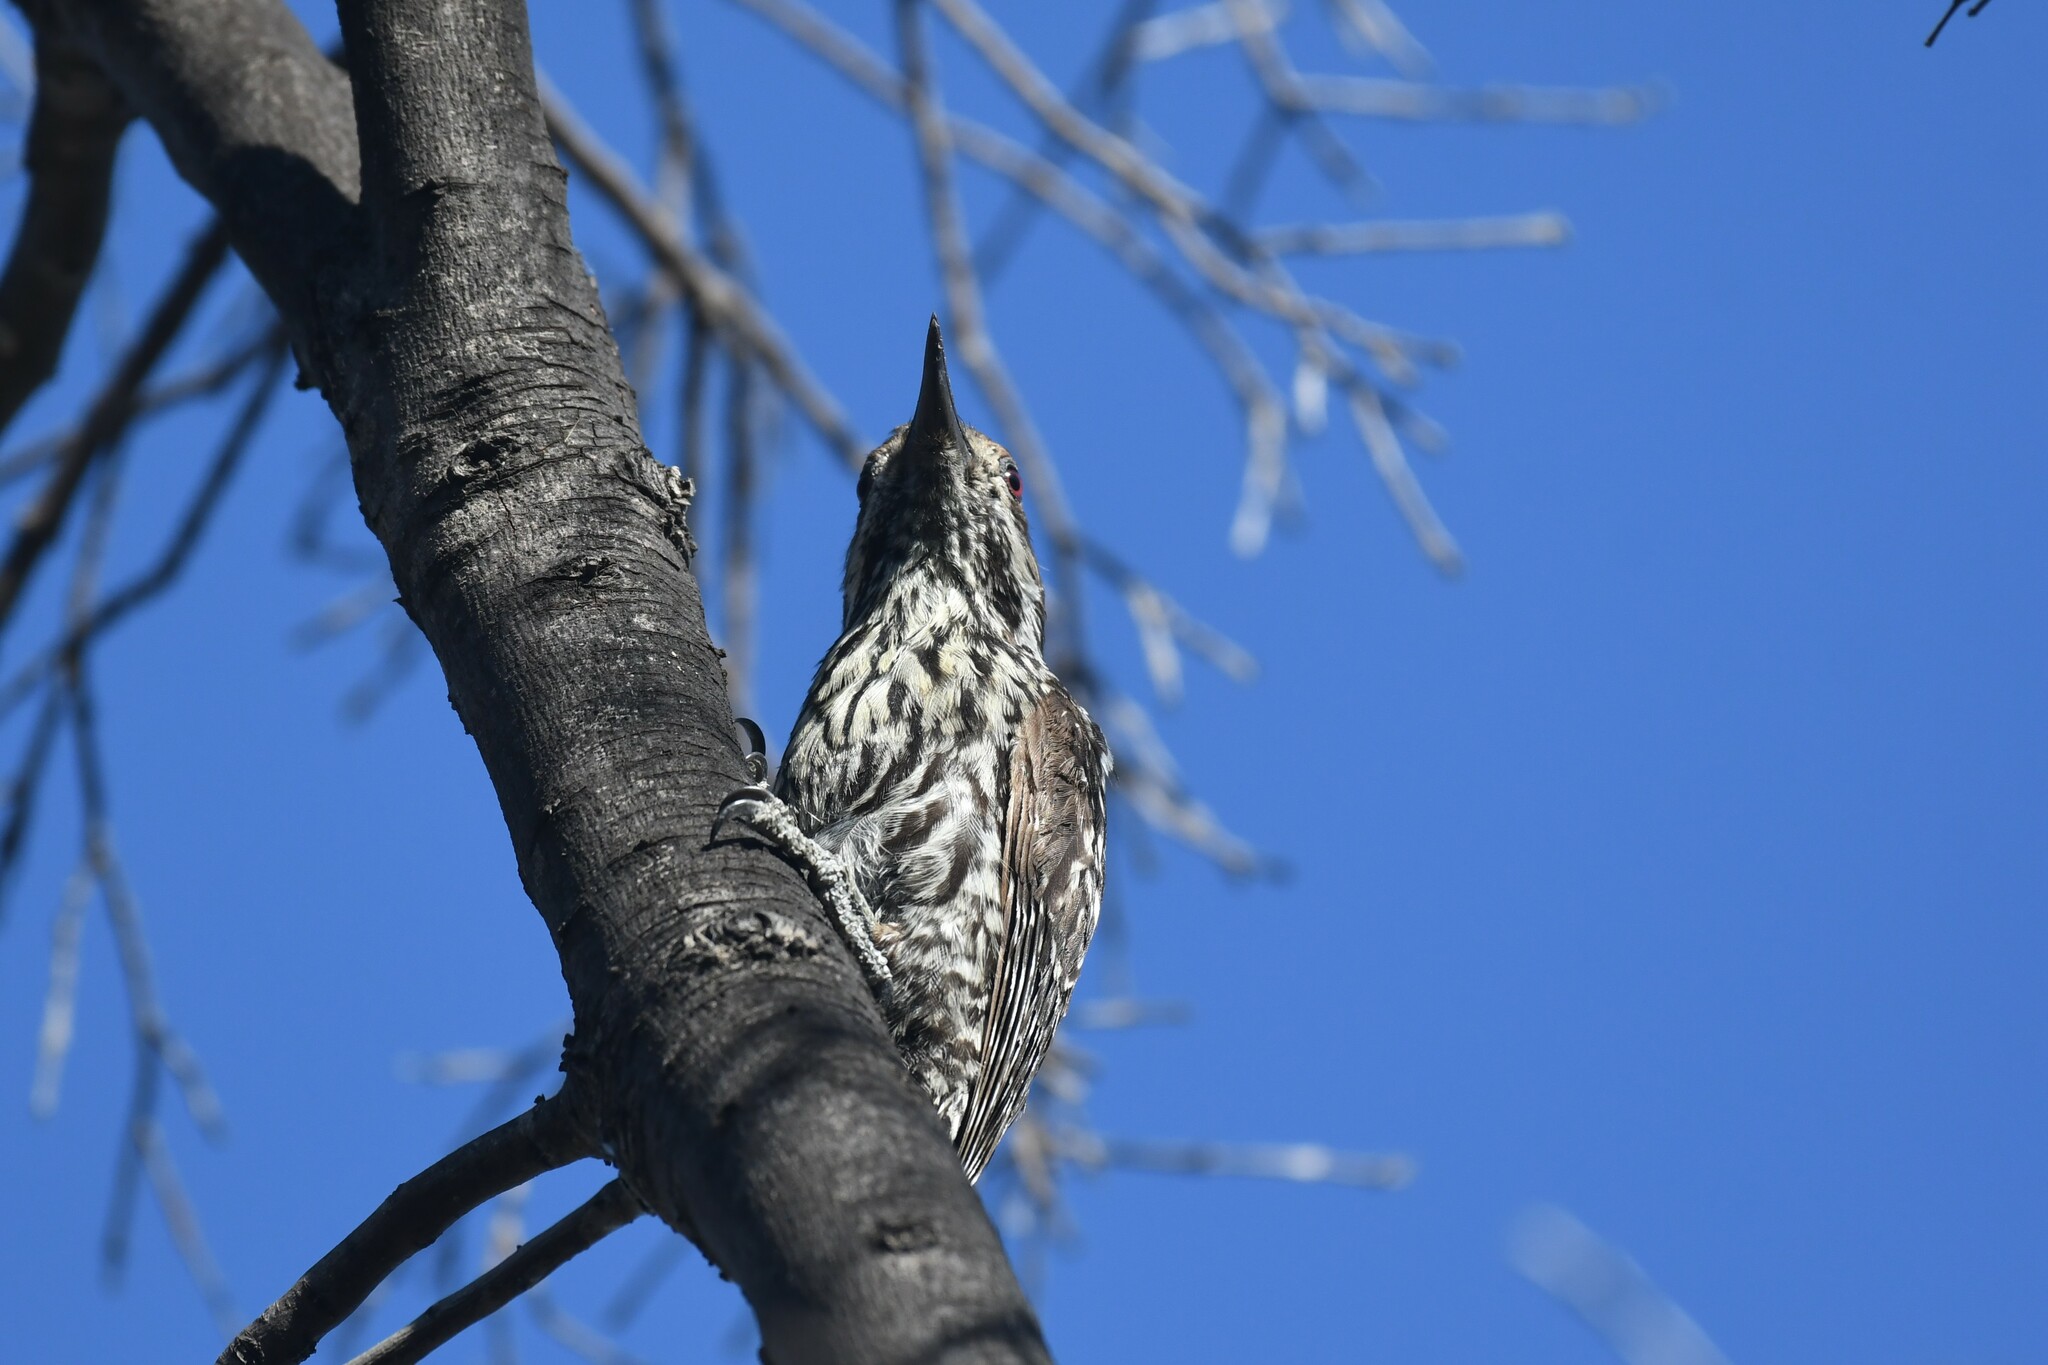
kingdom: Animalia
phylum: Chordata
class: Aves
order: Piciformes
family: Picidae
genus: Veniliornis
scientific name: Veniliornis lignarius
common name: Striped woodpecker
